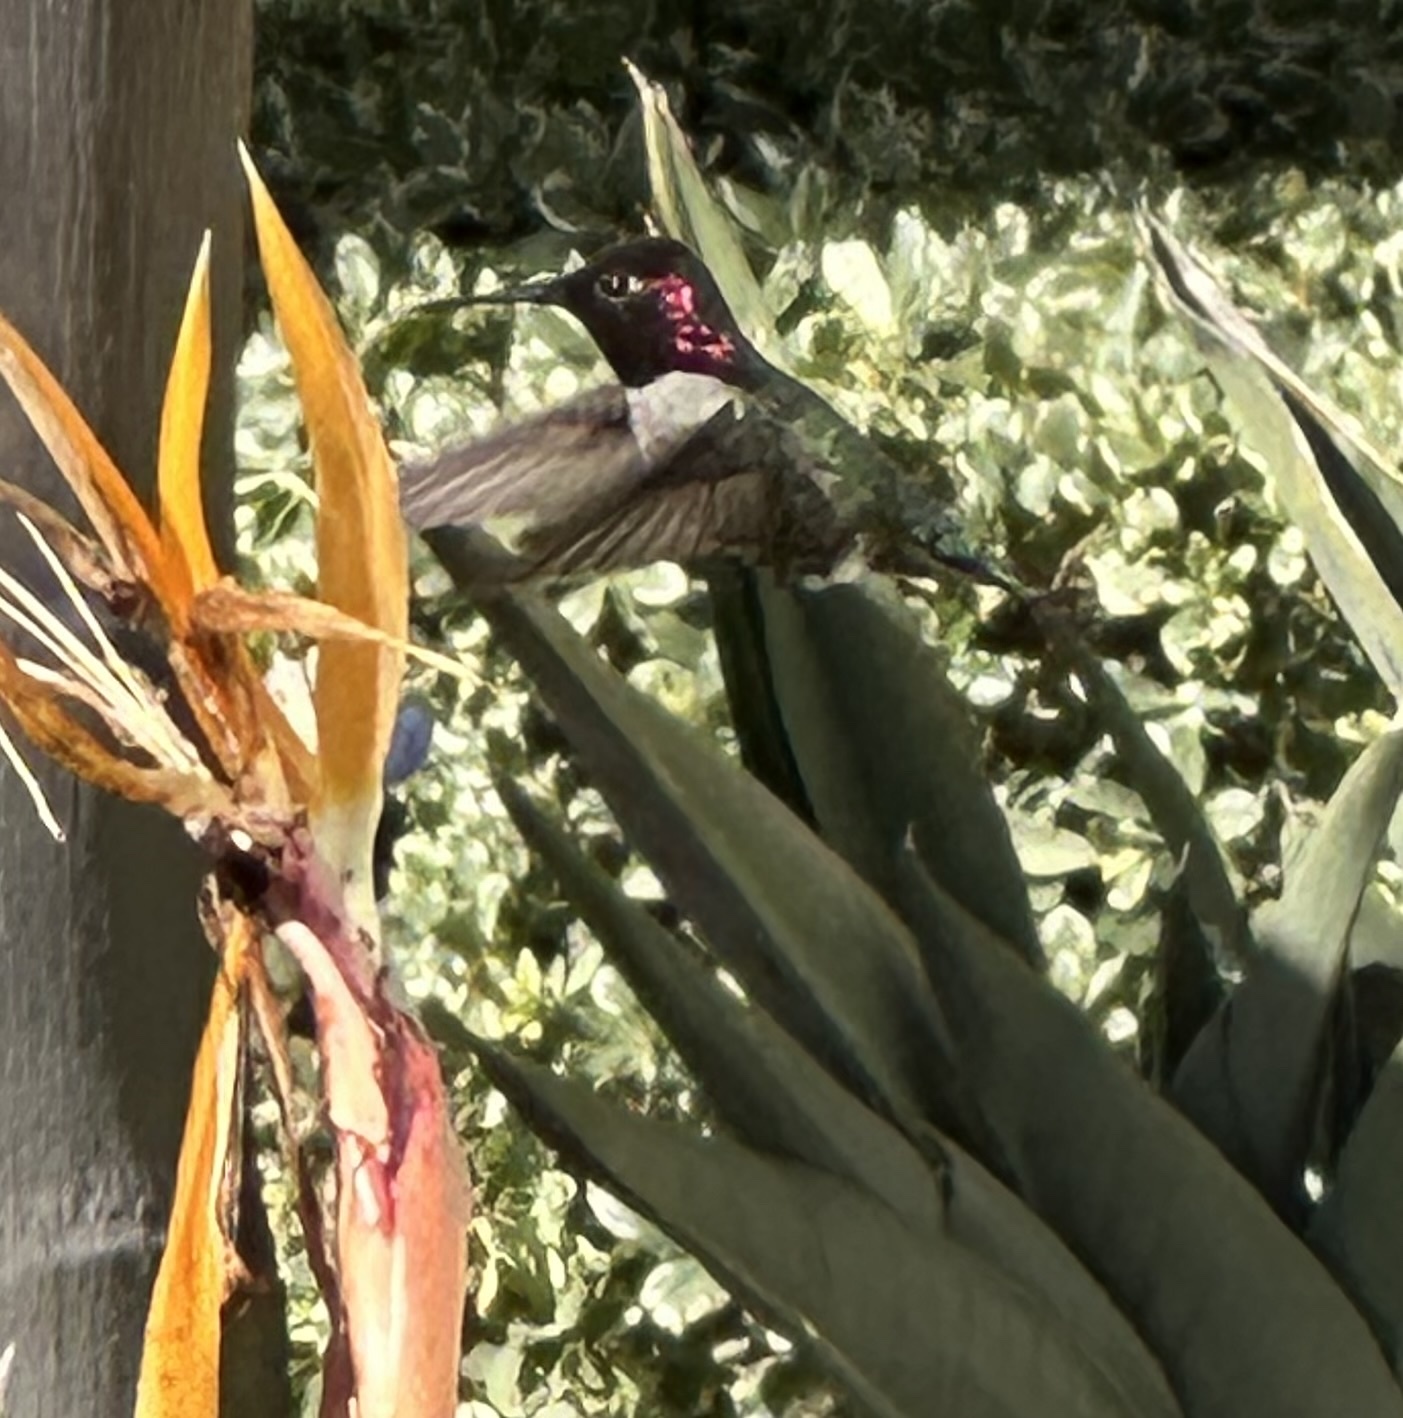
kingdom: Animalia
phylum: Chordata
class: Aves
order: Apodiformes
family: Trochilidae
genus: Calypte
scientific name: Calypte anna
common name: Anna's hummingbird
